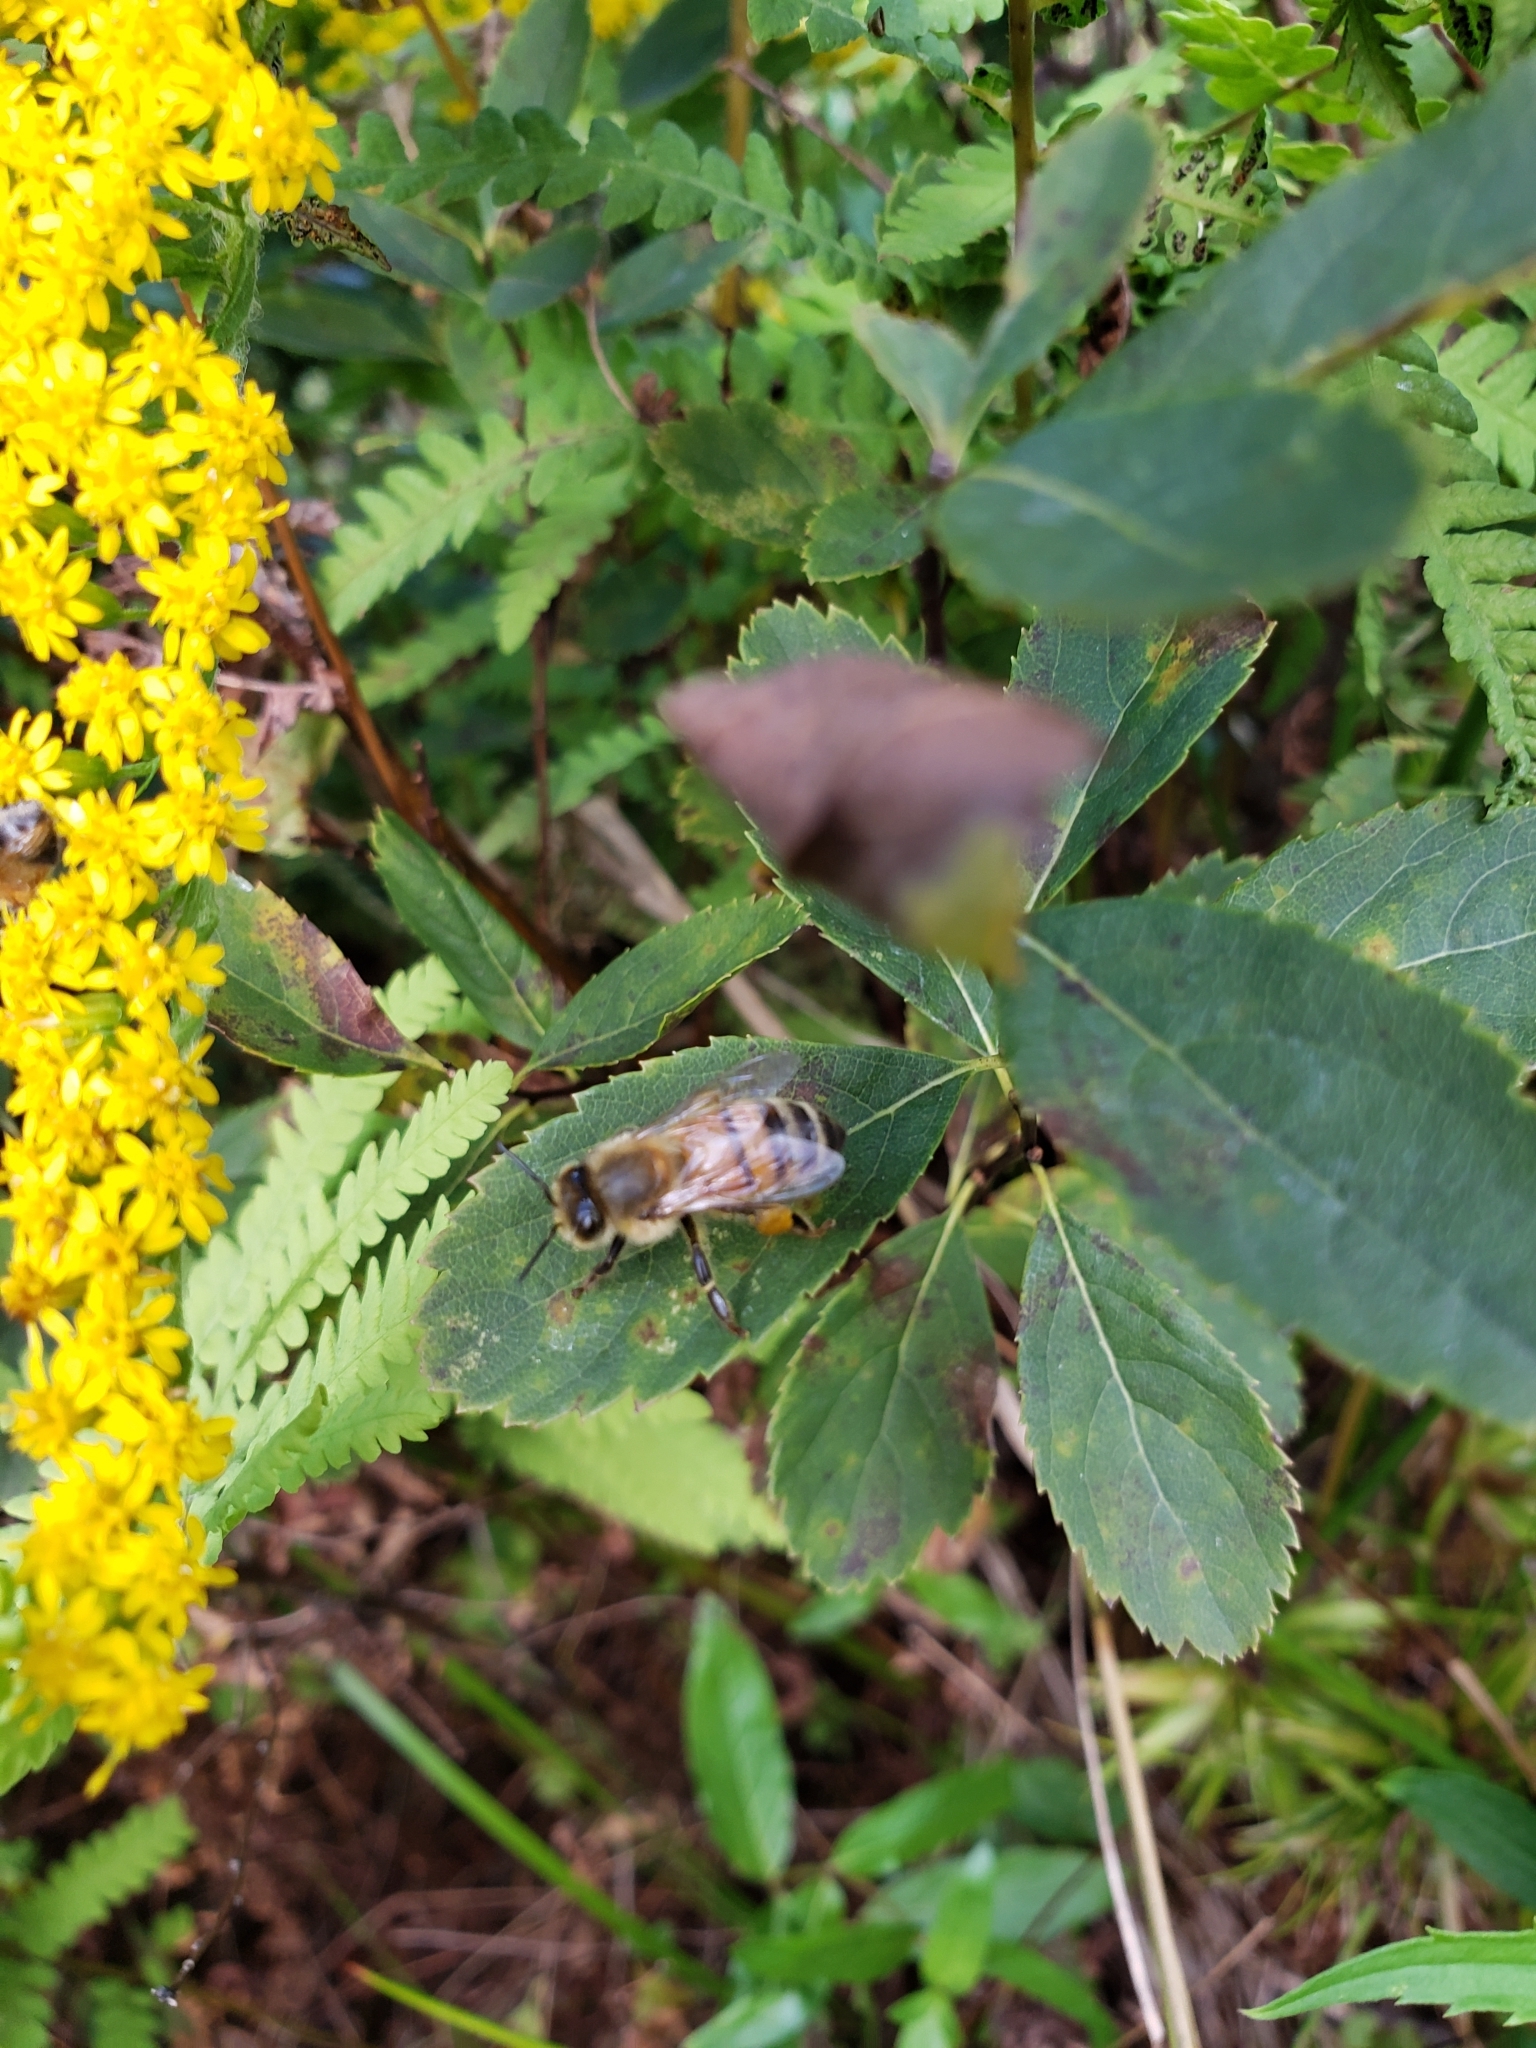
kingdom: Animalia
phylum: Arthropoda
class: Insecta
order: Hymenoptera
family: Apidae
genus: Apis
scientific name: Apis mellifera
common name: Honey bee
